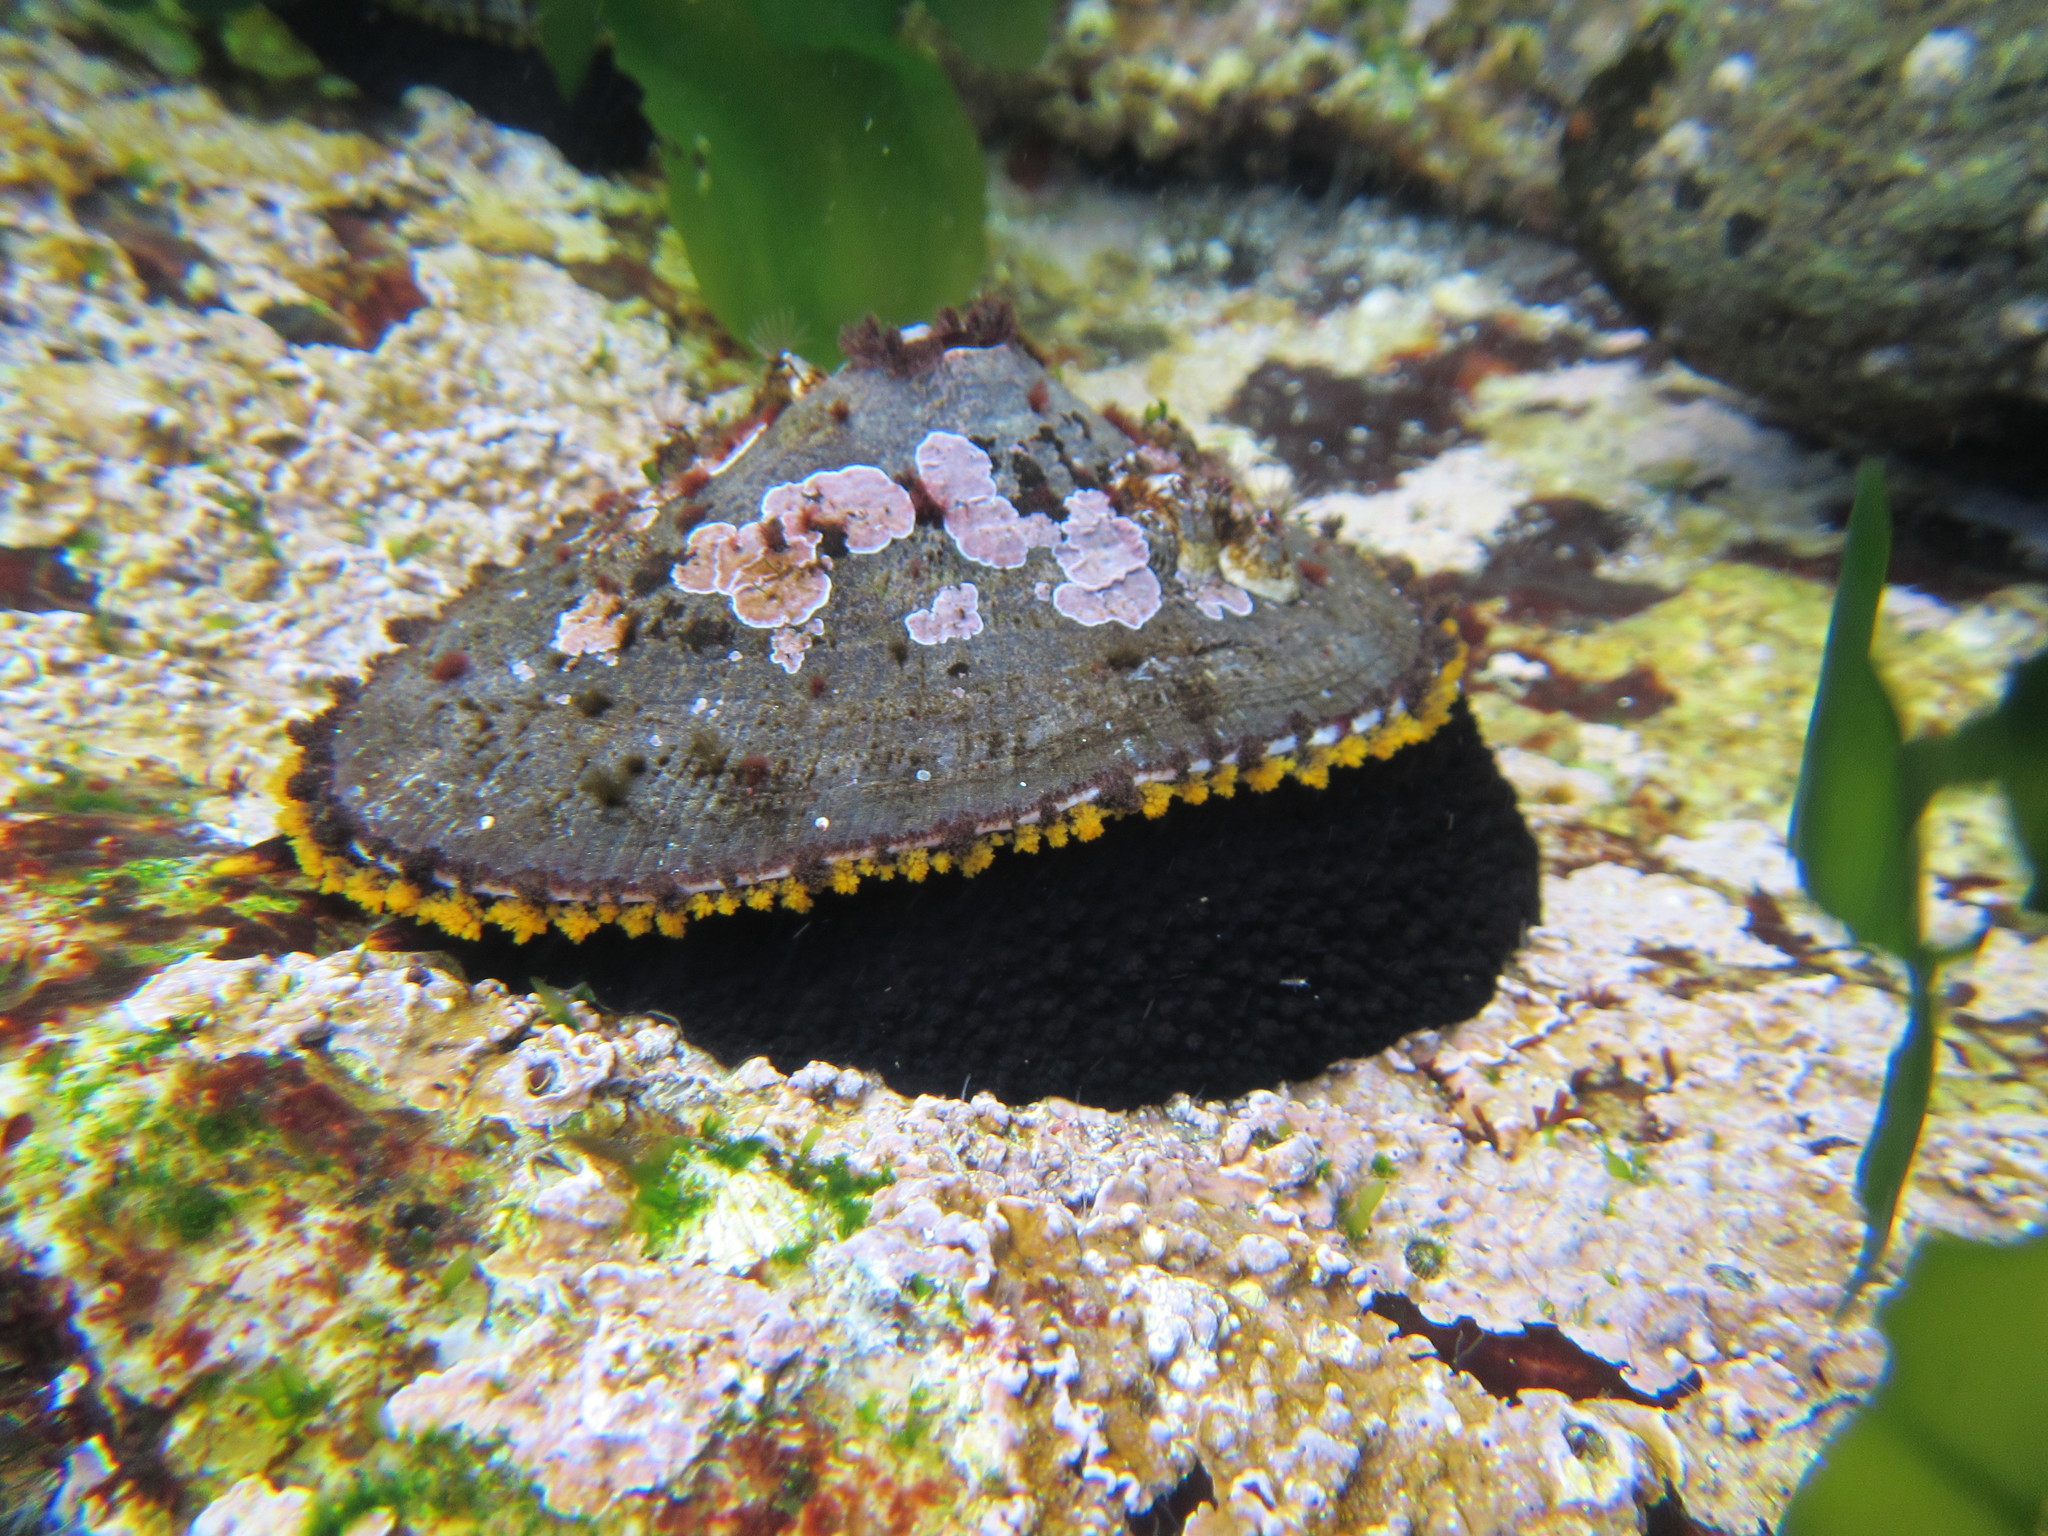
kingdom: Animalia
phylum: Mollusca
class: Gastropoda
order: Lepetellida
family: Fissurellidae
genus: Fissurella
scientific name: Fissurella latimarginata
